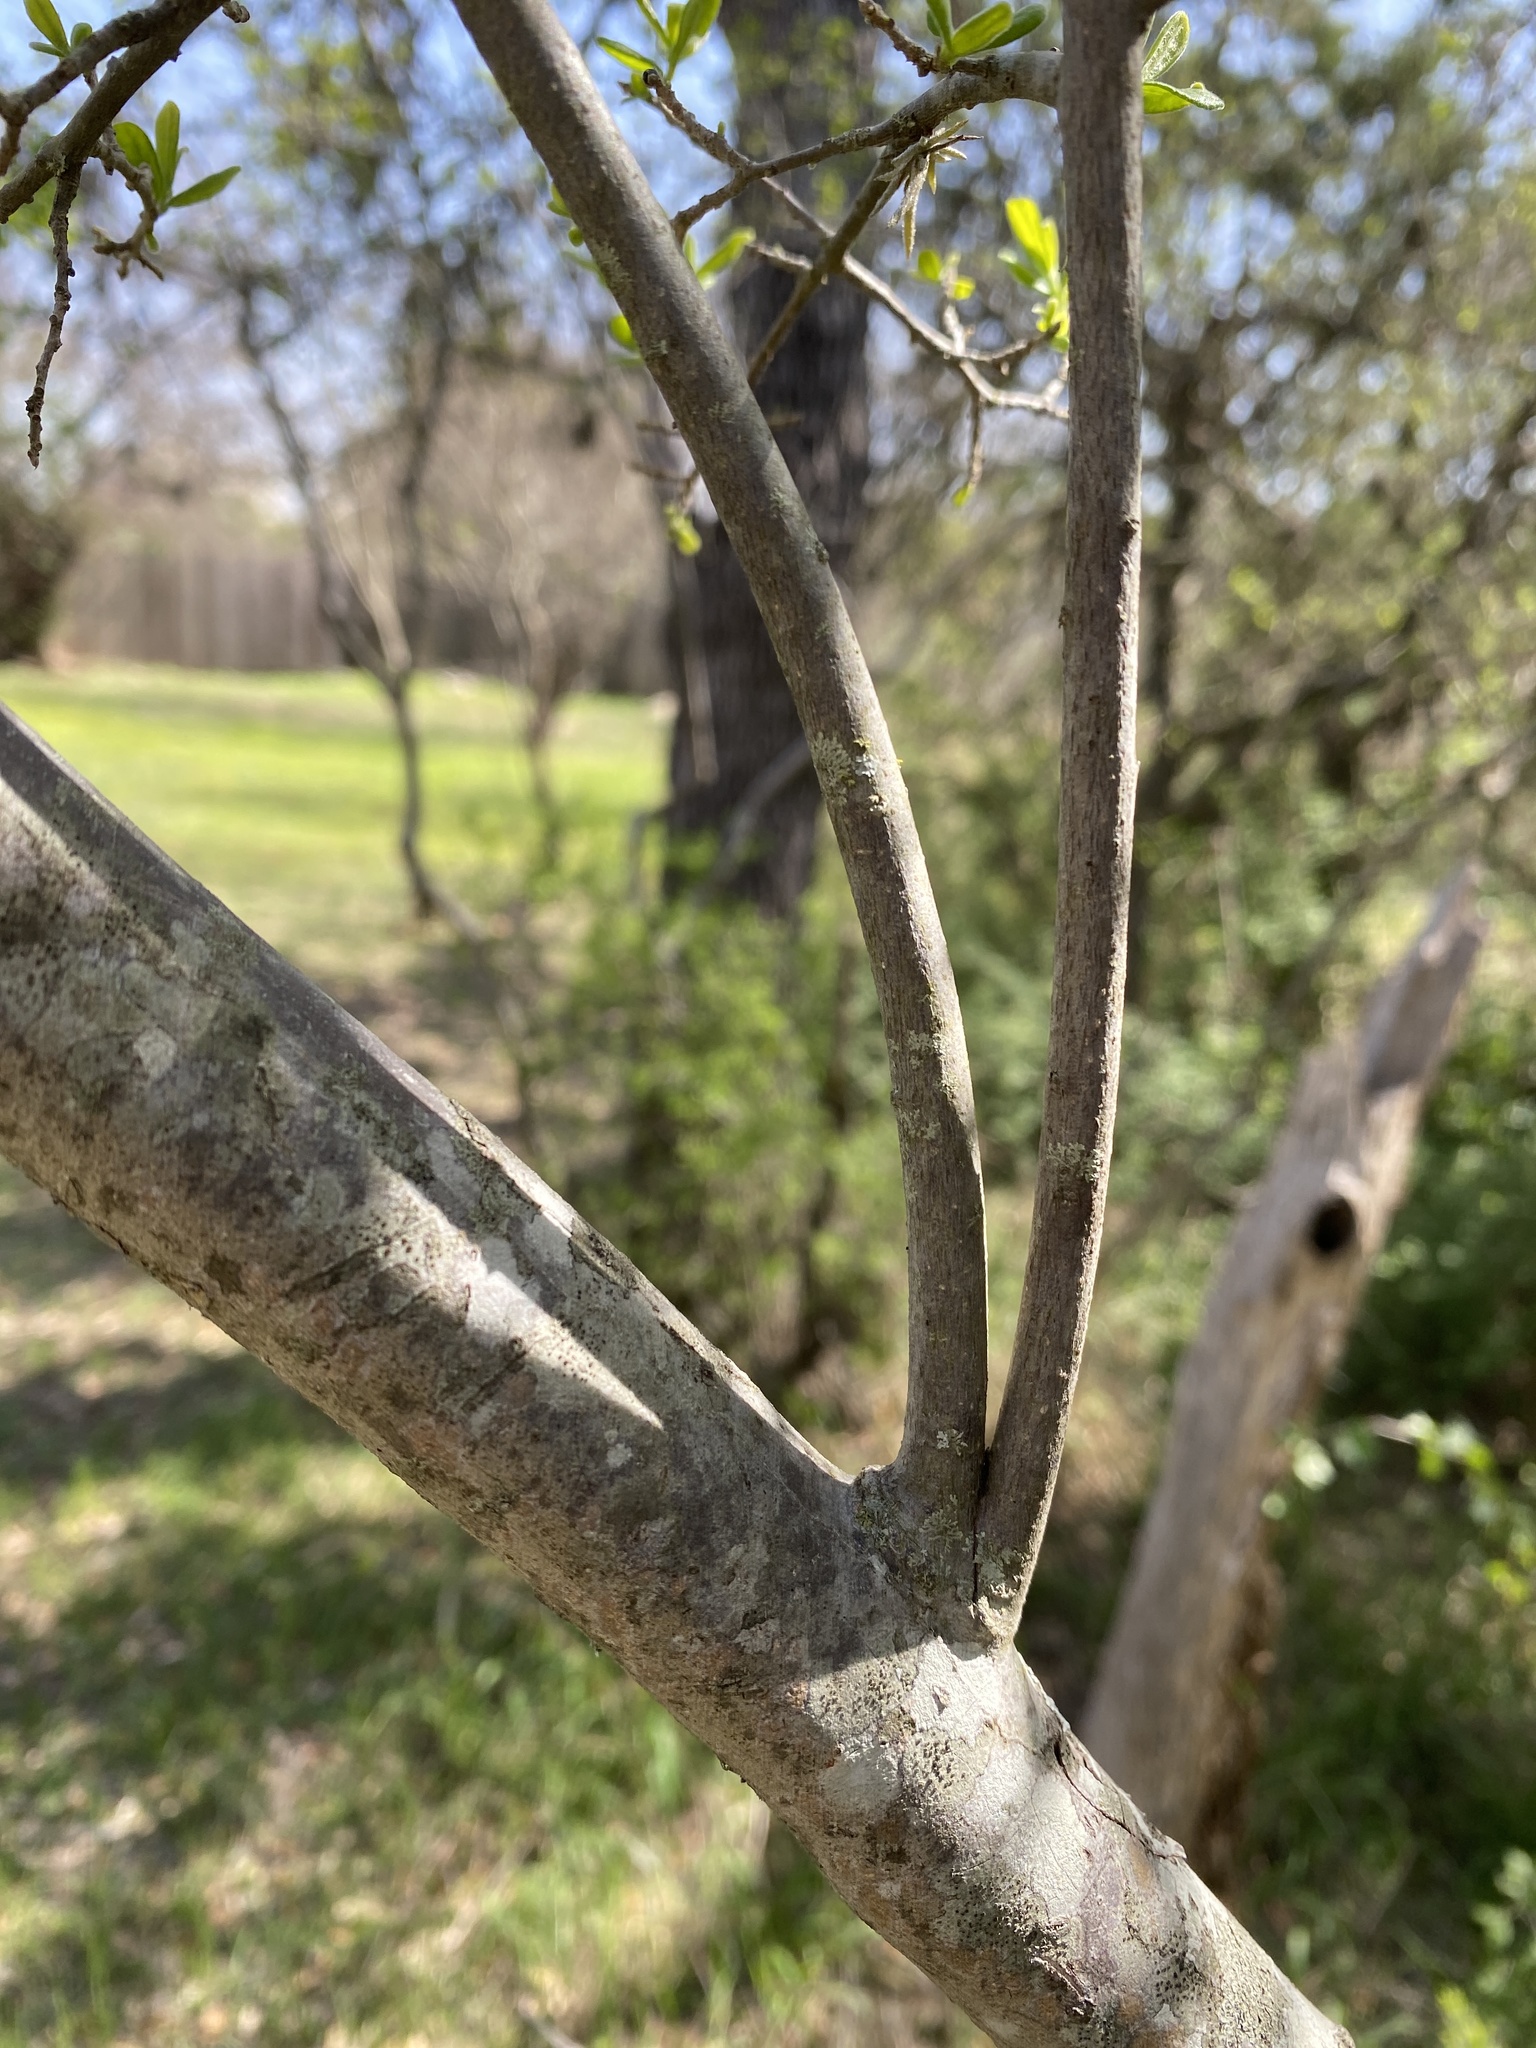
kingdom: Plantae
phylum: Tracheophyta
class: Magnoliopsida
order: Ericales
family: Ebenaceae
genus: Diospyros
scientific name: Diospyros texana
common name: Texas persimmon
